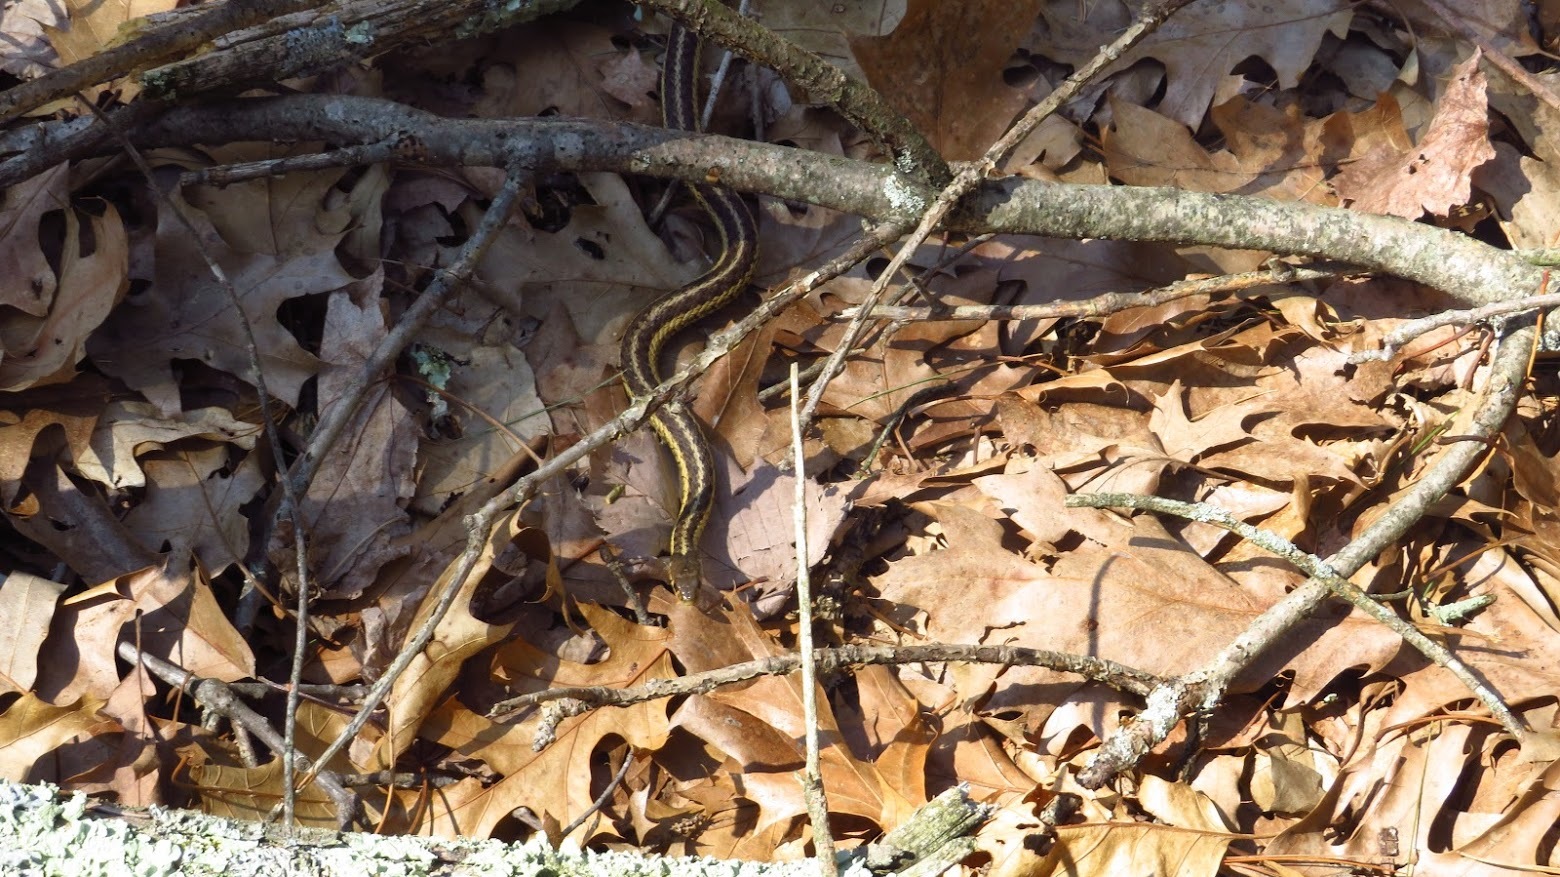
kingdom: Animalia
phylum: Chordata
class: Squamata
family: Colubridae
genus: Thamnophis
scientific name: Thamnophis sirtalis
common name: Common garter snake
